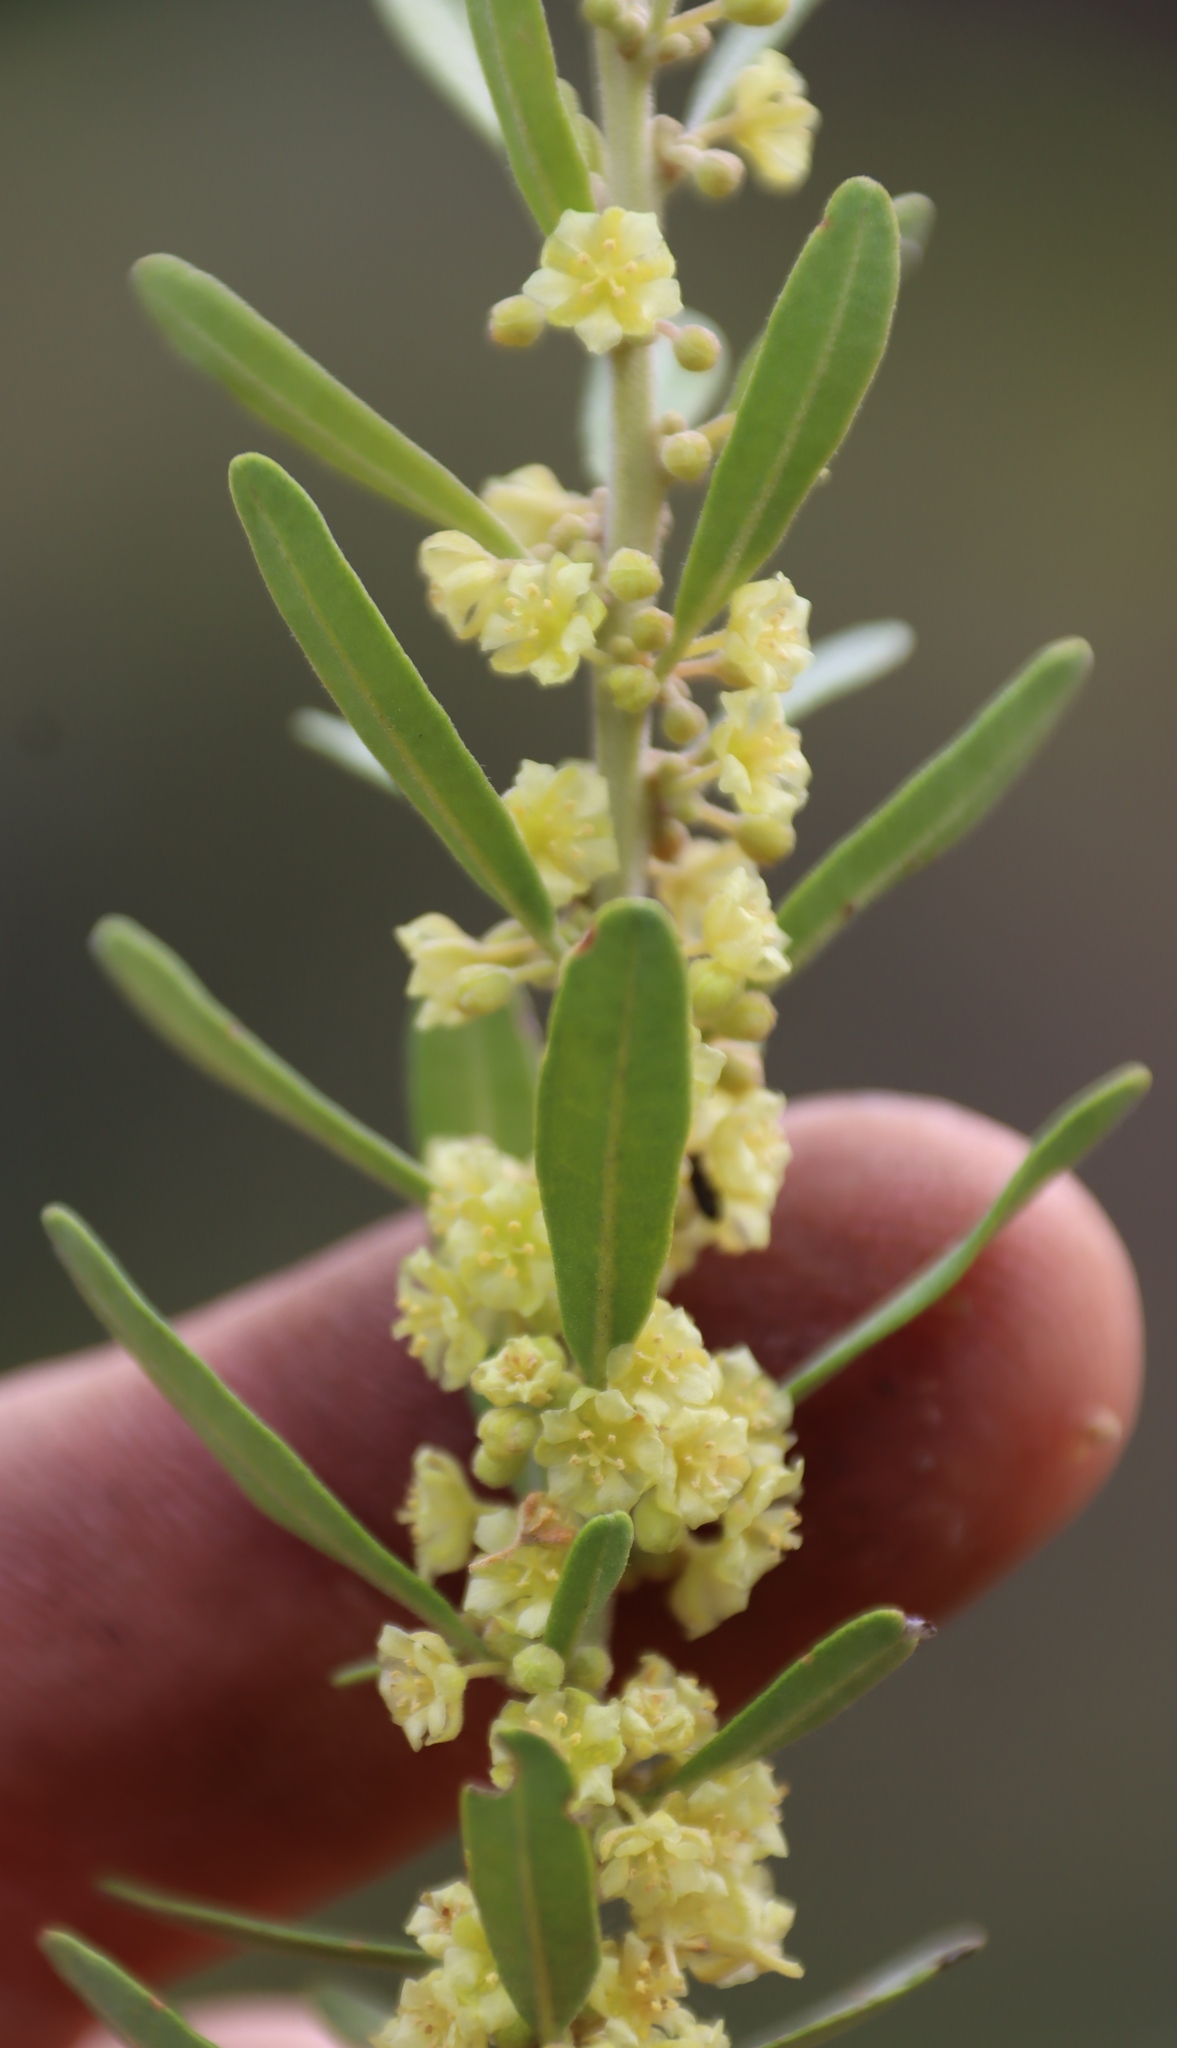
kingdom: Plantae
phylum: Tracheophyta
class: Magnoliopsida
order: Malpighiales
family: Peraceae
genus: Clutia
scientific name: Clutia daphnoides
